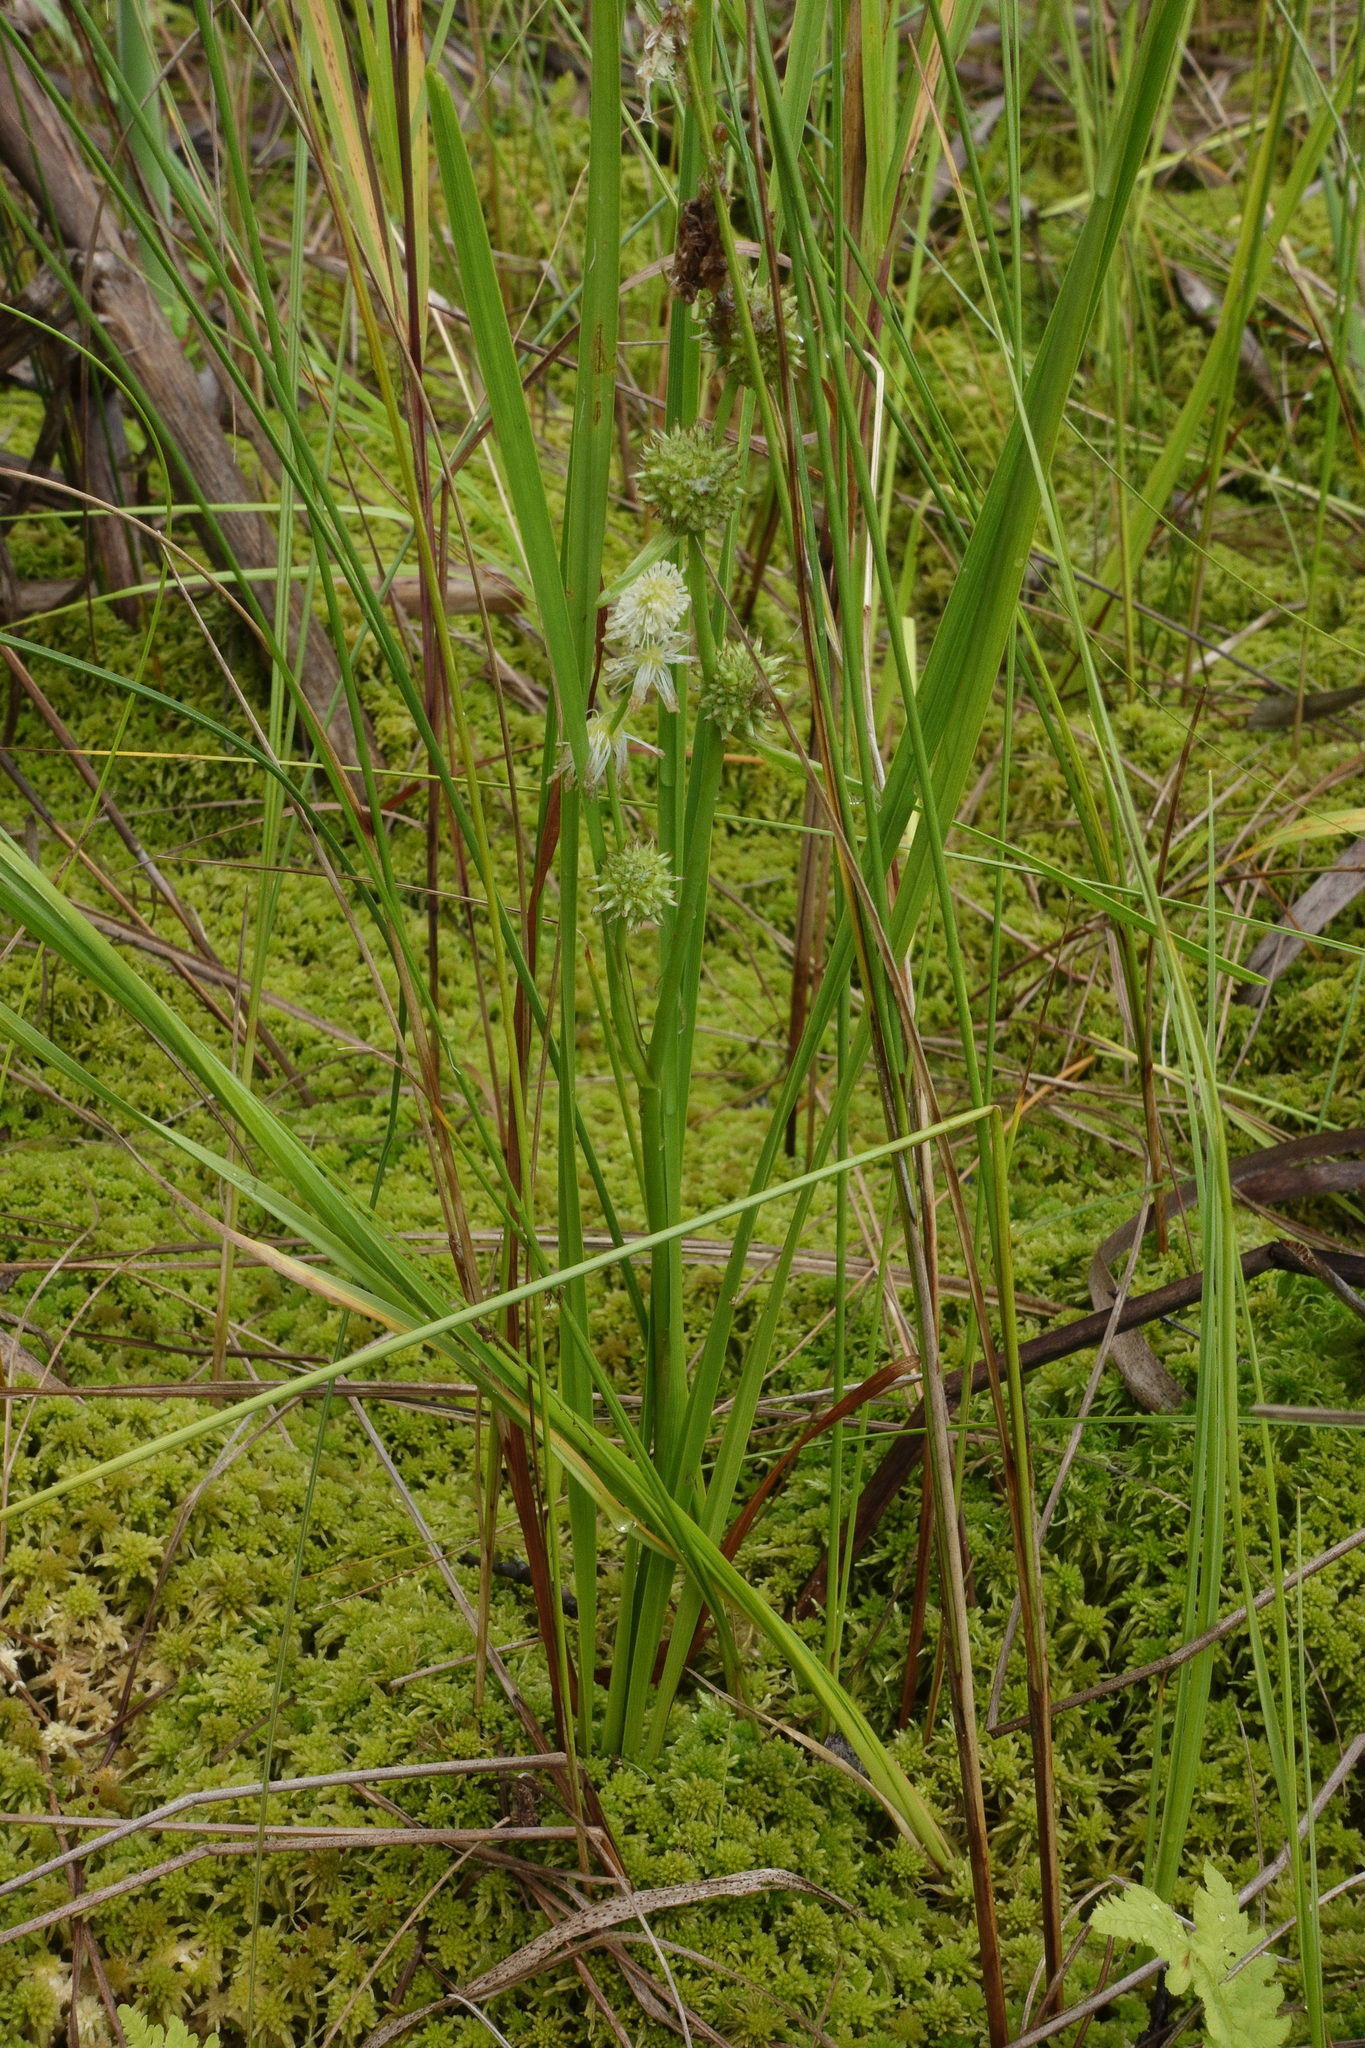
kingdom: Plantae
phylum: Tracheophyta
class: Liliopsida
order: Poales
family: Typhaceae
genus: Sparganium
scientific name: Sparganium subglobosum
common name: Burr­-reed
